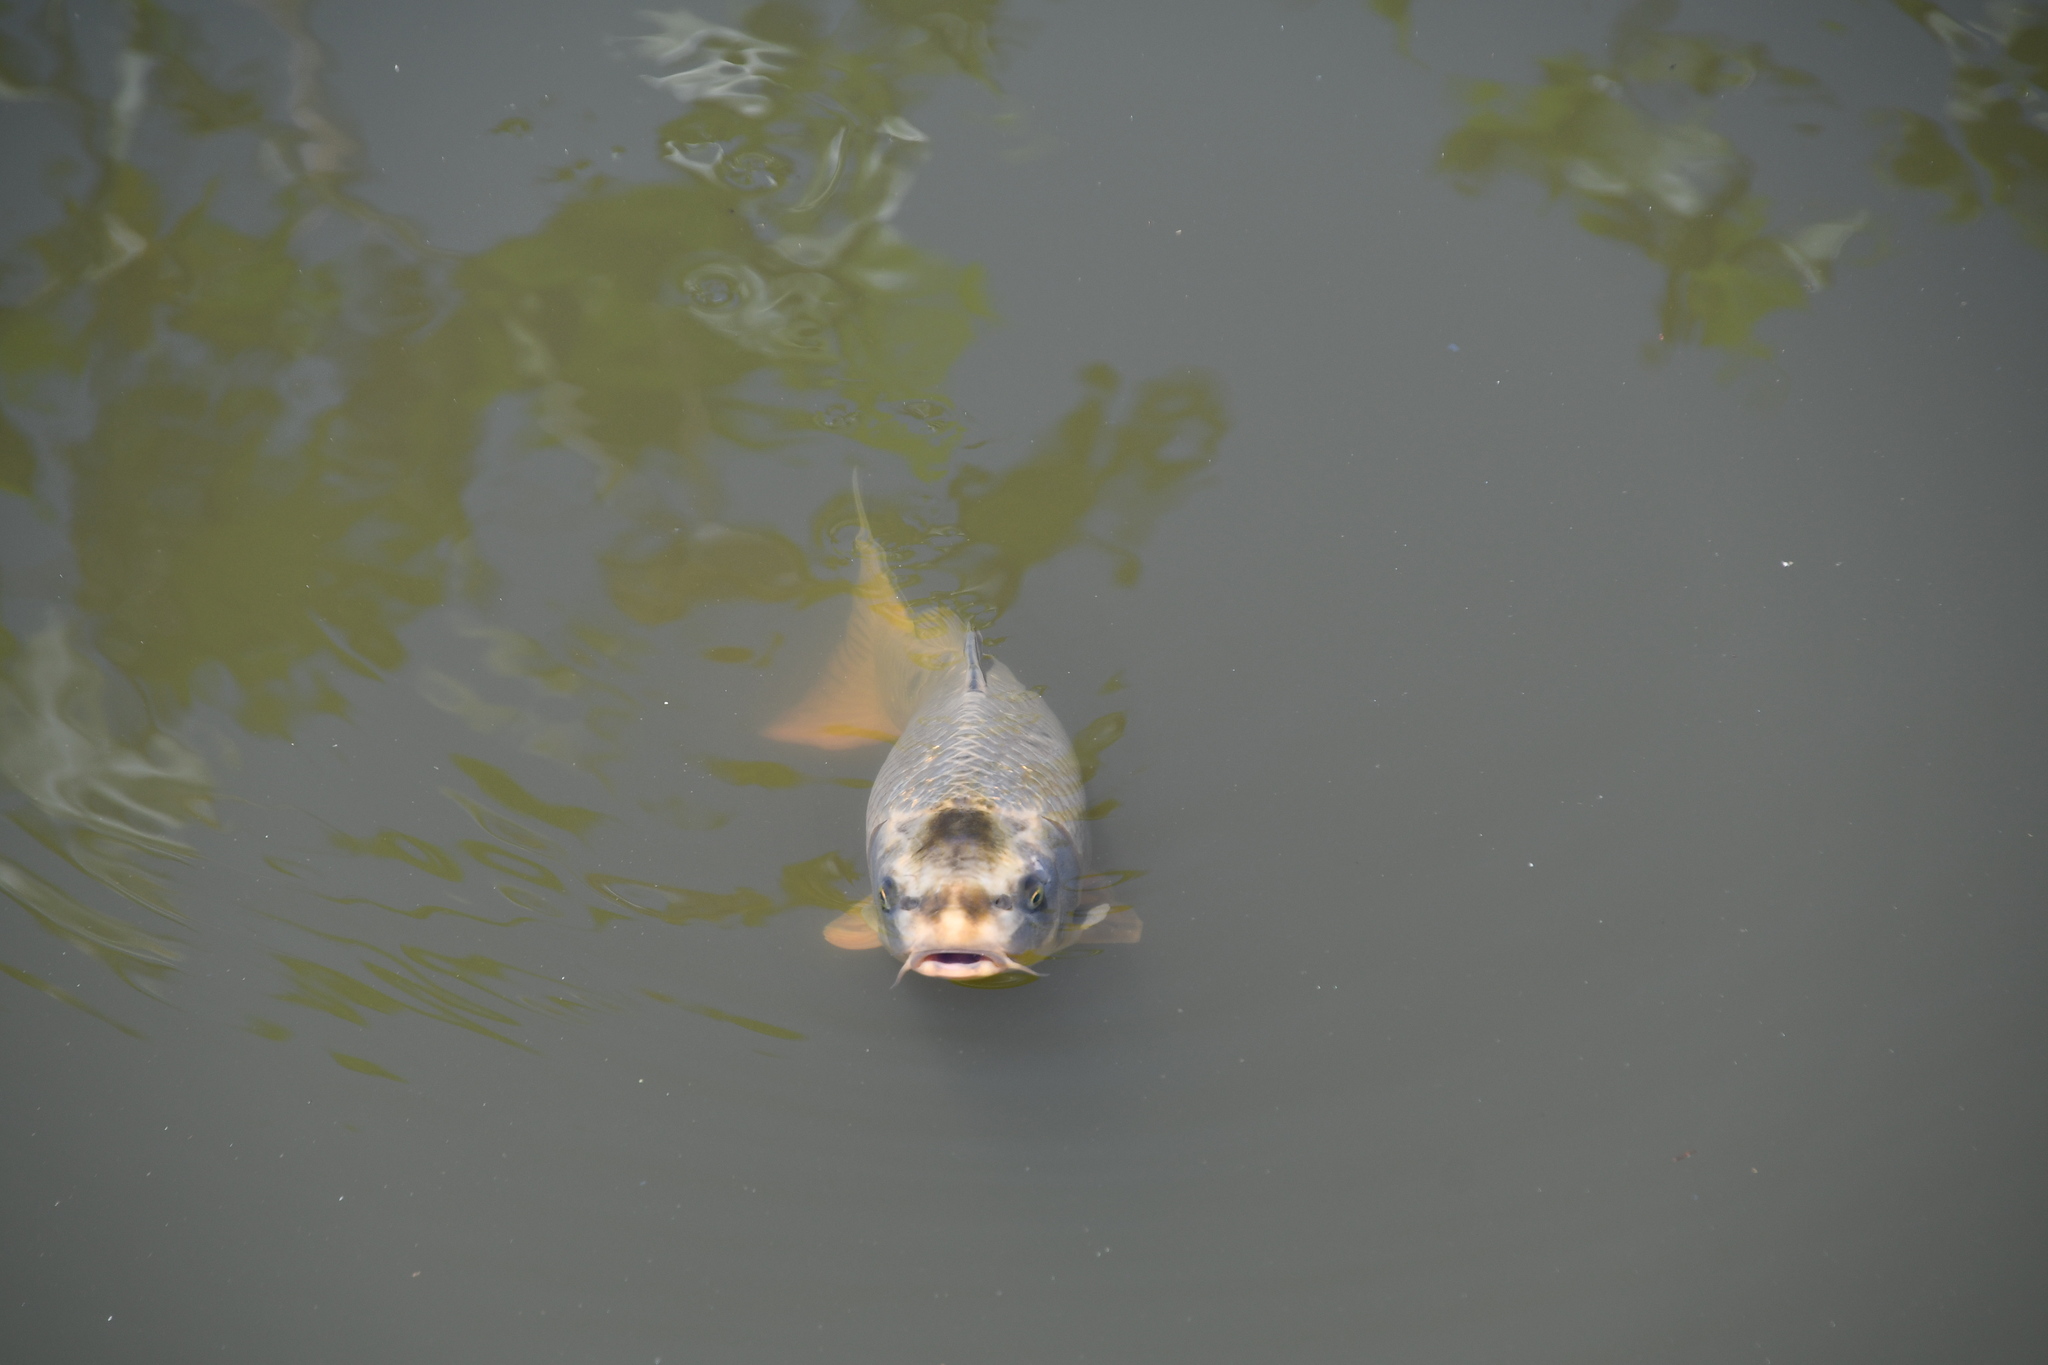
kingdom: Animalia
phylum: Chordata
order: Cypriniformes
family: Cyprinidae
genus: Cyprinus
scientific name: Cyprinus carpio
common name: Common carp
